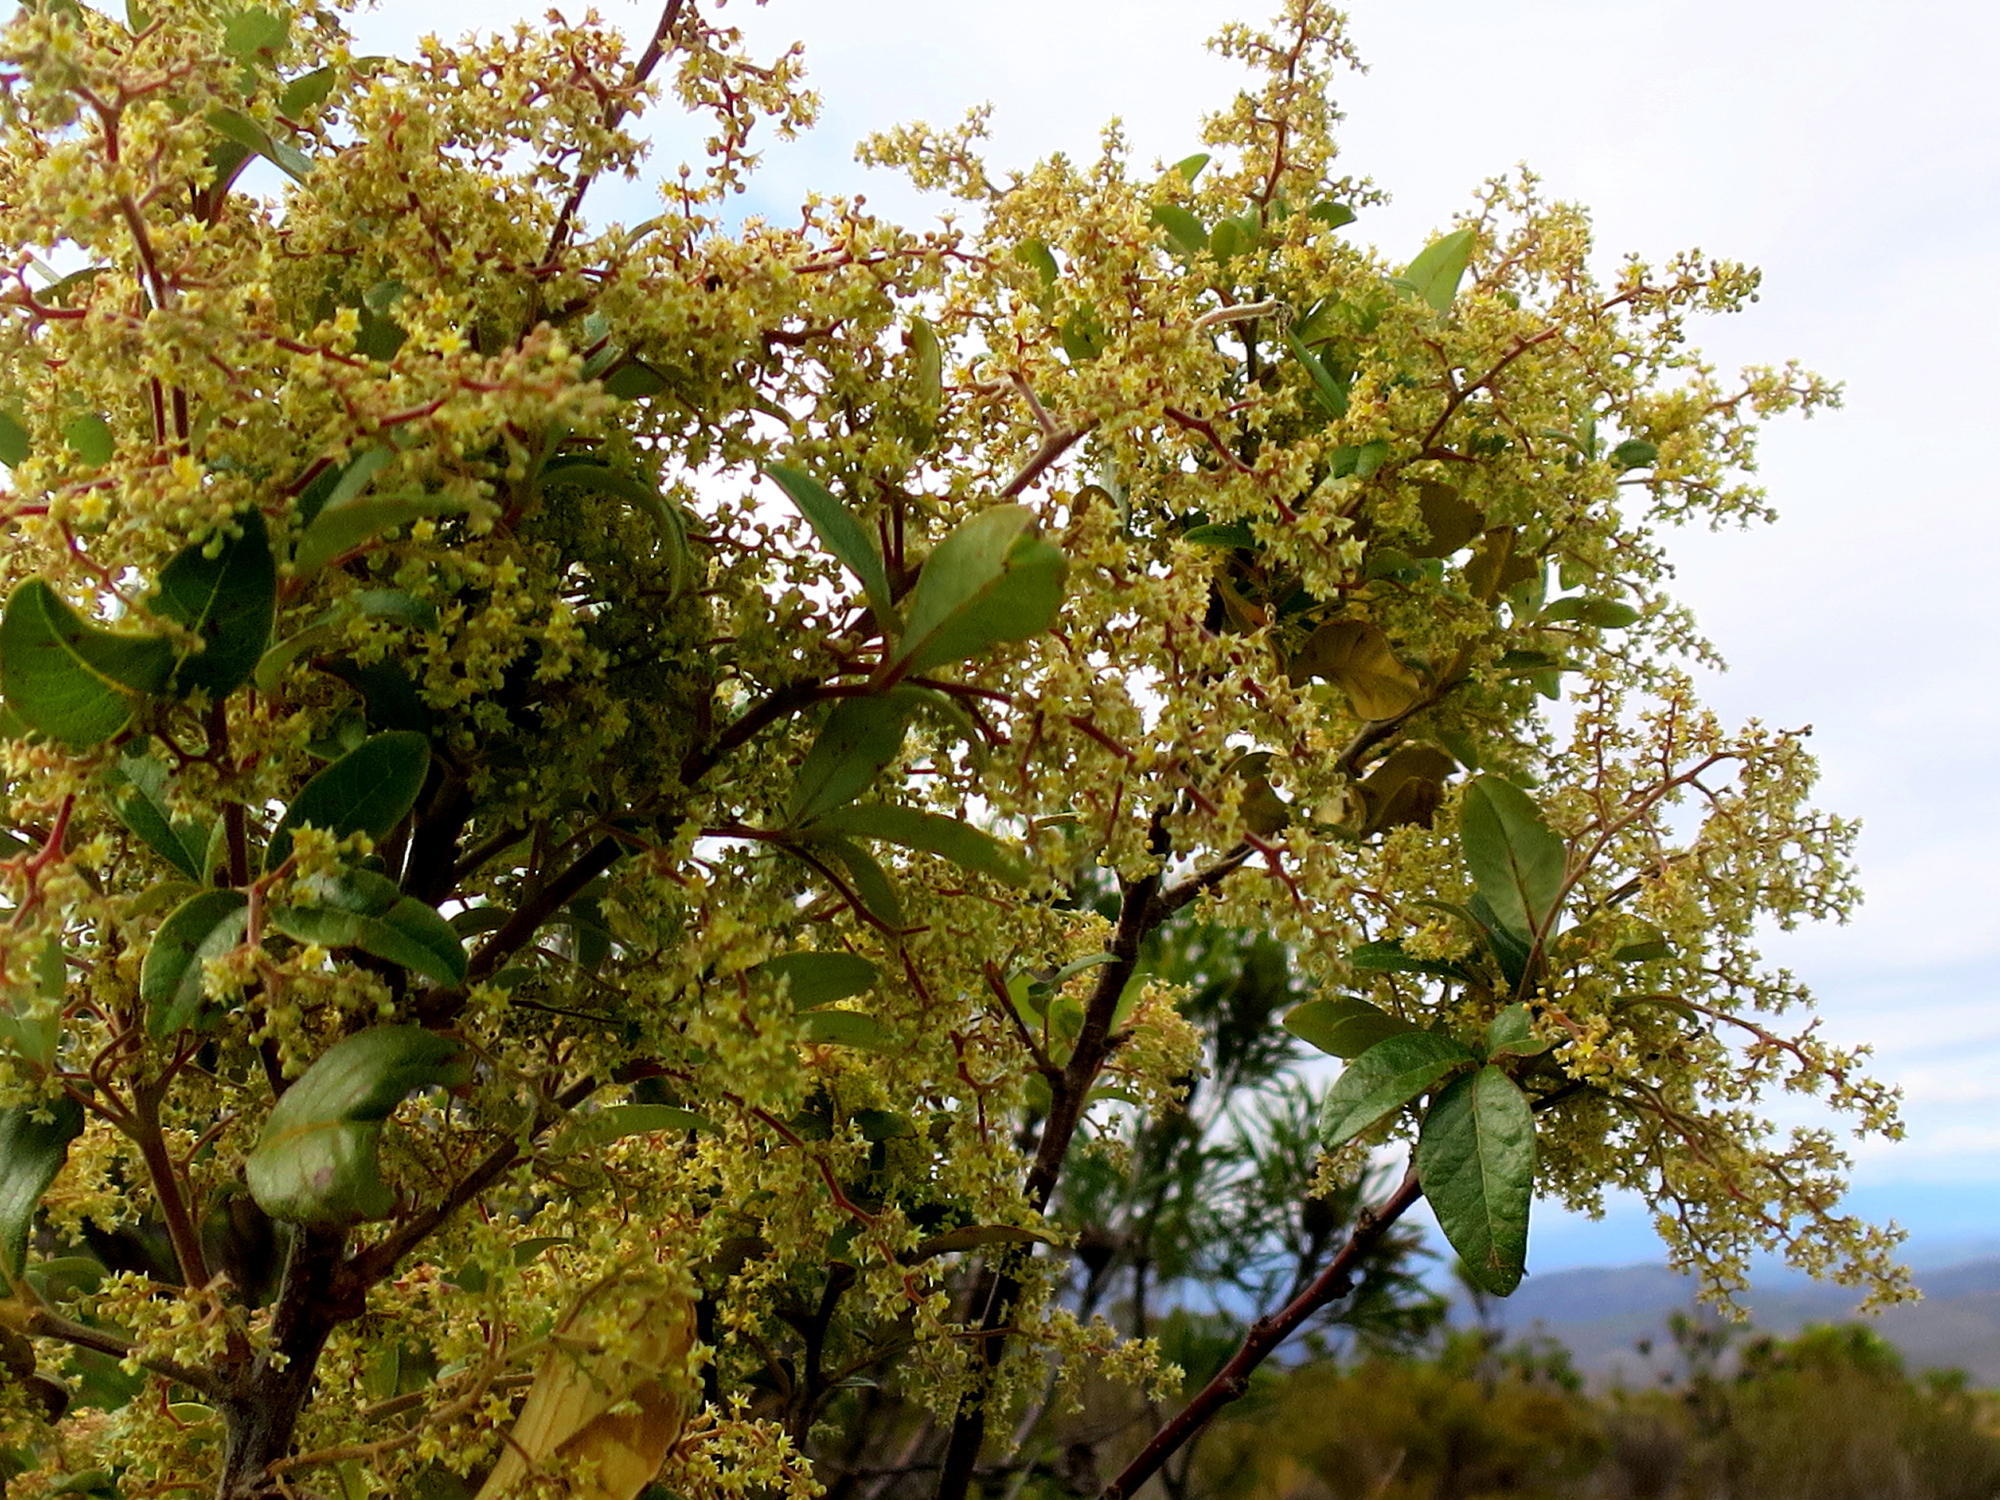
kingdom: Plantae
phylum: Tracheophyta
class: Magnoliopsida
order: Sapindales
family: Anacardiaceae
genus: Searsia
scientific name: Searsia tomentosa
